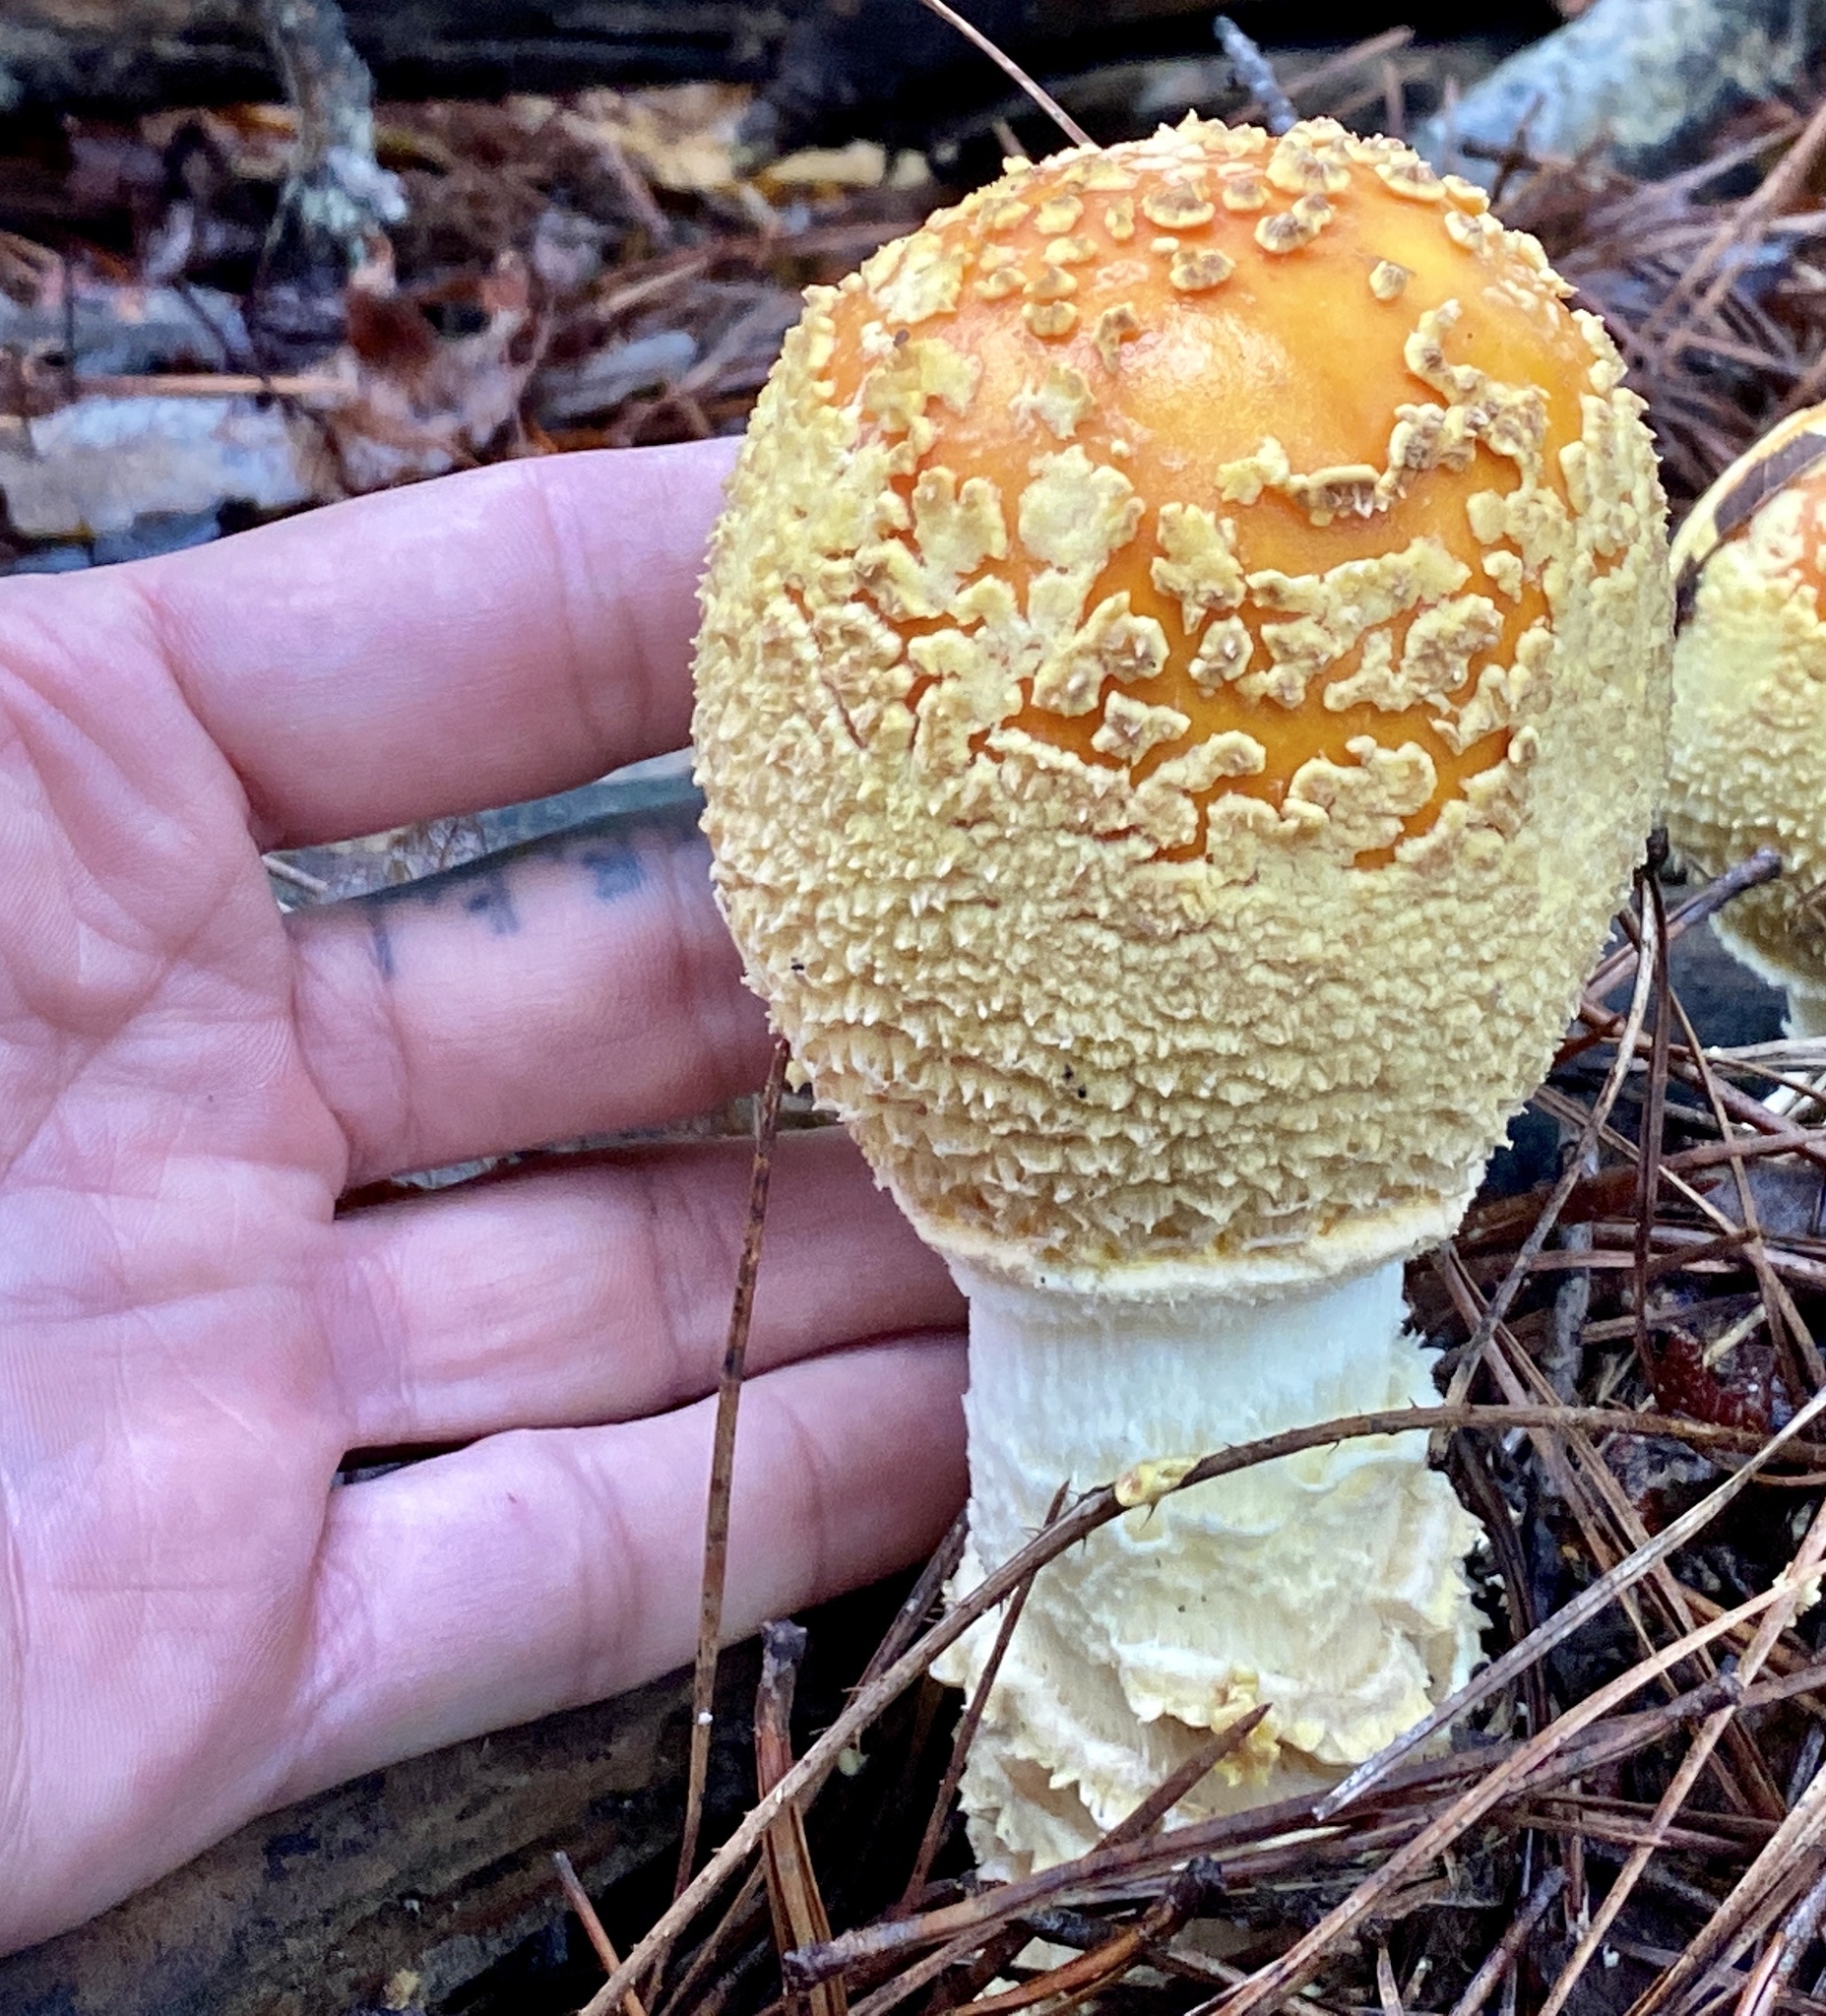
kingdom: Fungi
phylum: Basidiomycota
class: Agaricomycetes
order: Agaricales
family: Amanitaceae
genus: Amanita
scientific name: Amanita muscaria
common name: Fly agaric
